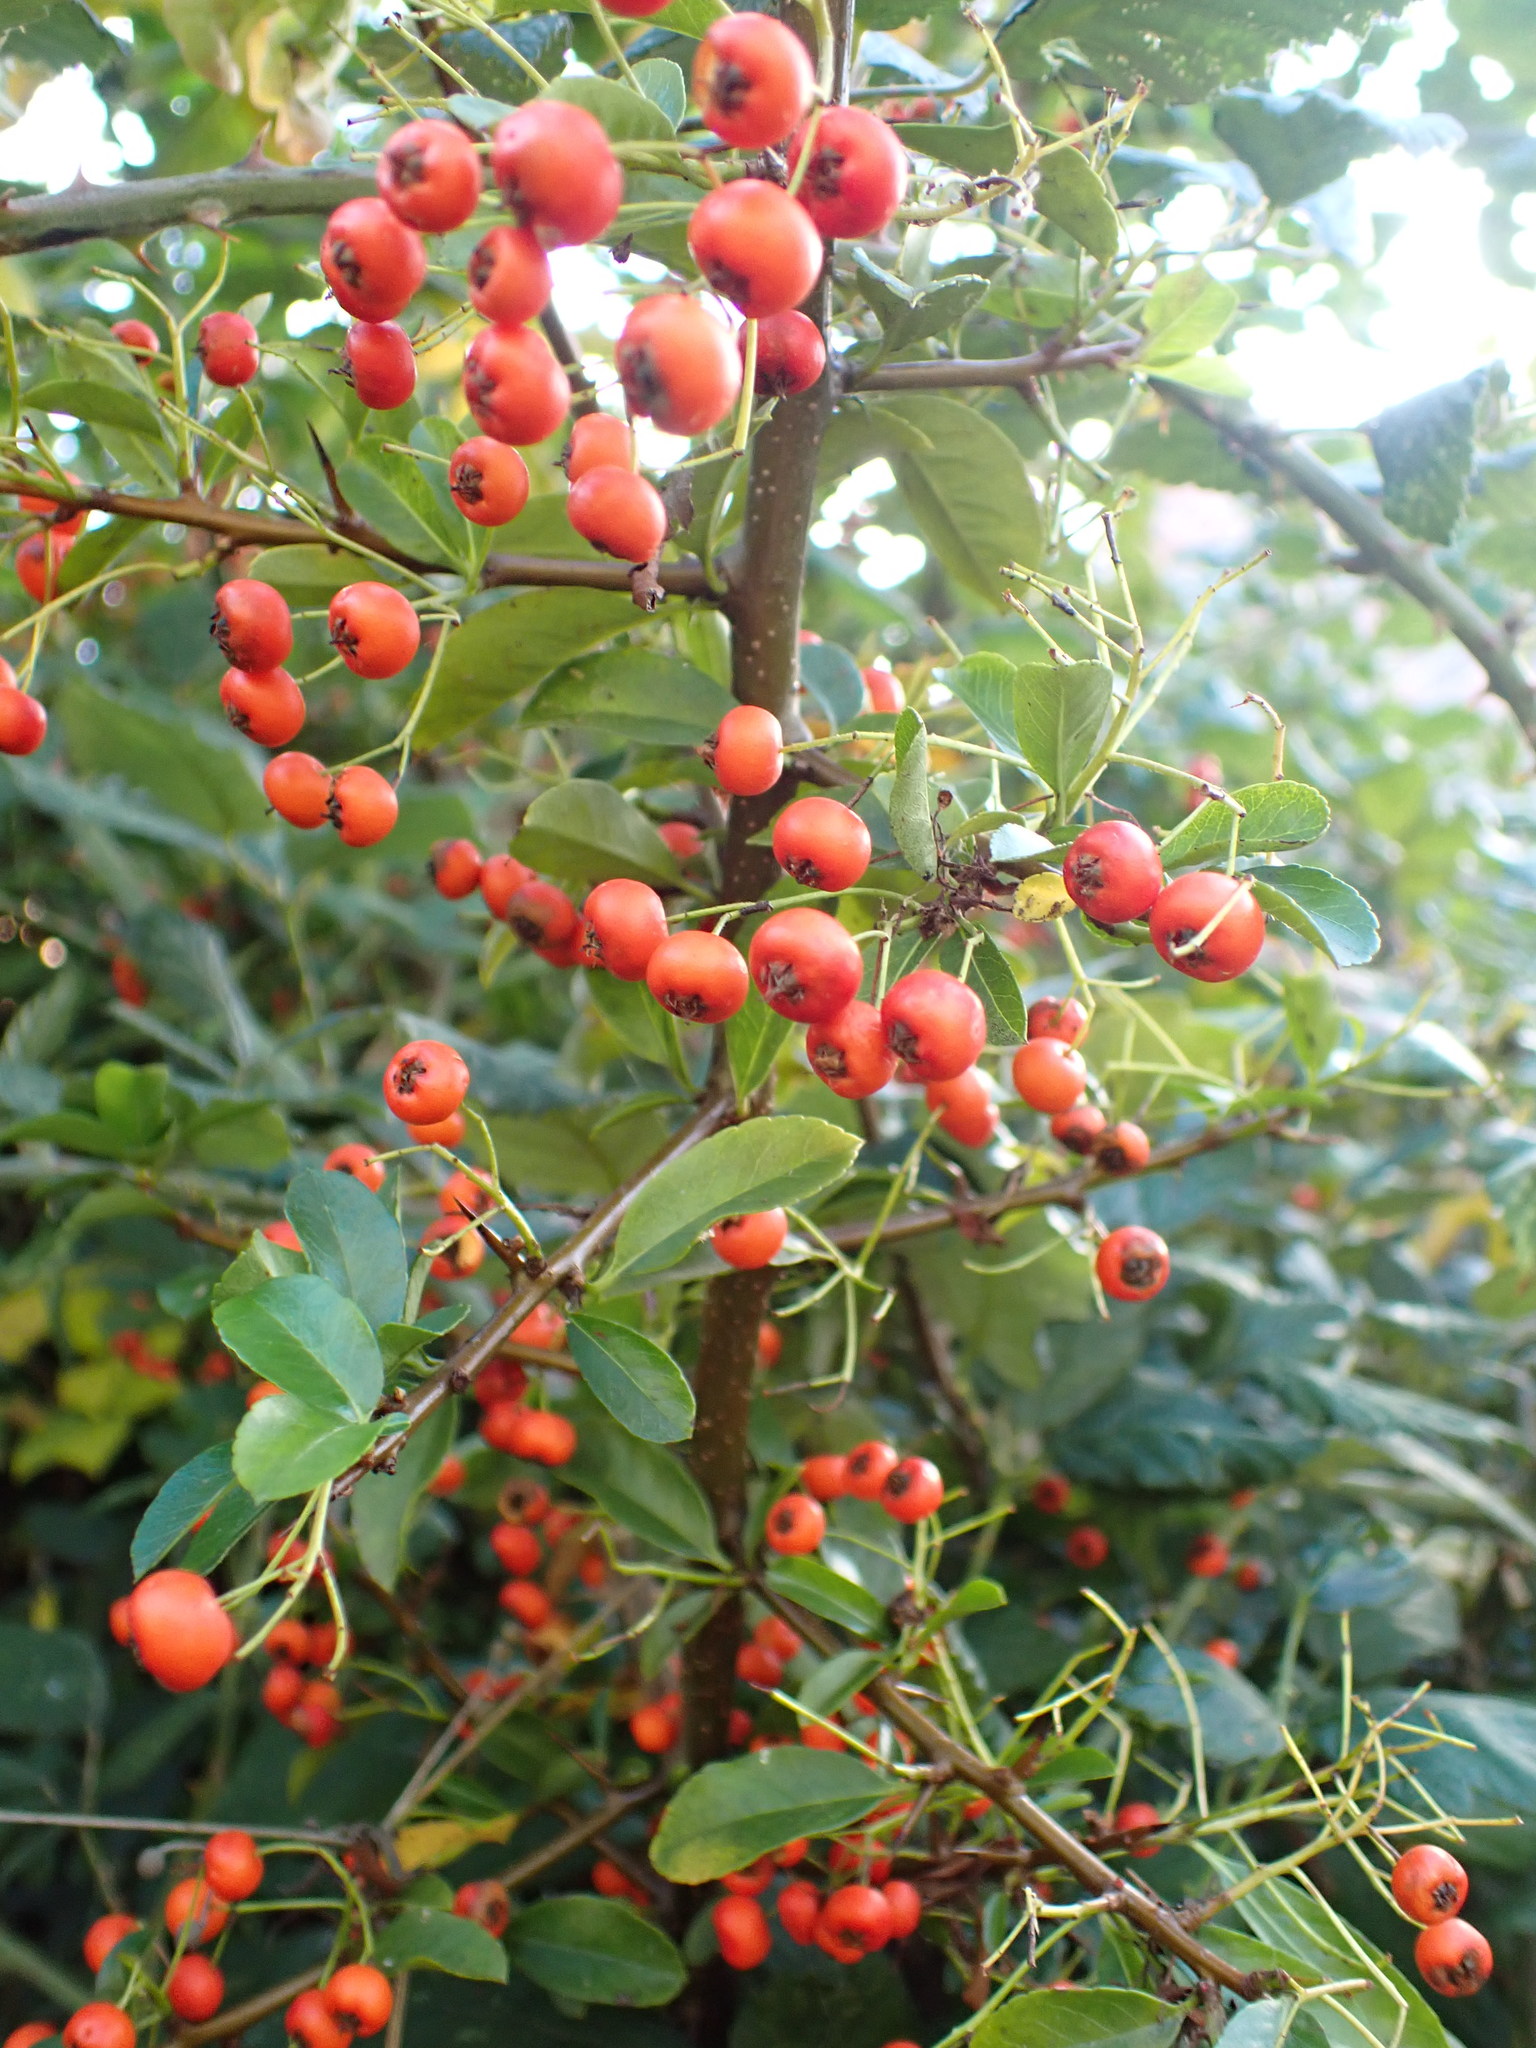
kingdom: Plantae
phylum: Tracheophyta
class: Magnoliopsida
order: Rosales
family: Rosaceae
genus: Pyracantha
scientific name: Pyracantha coccinea
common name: Firethorn
